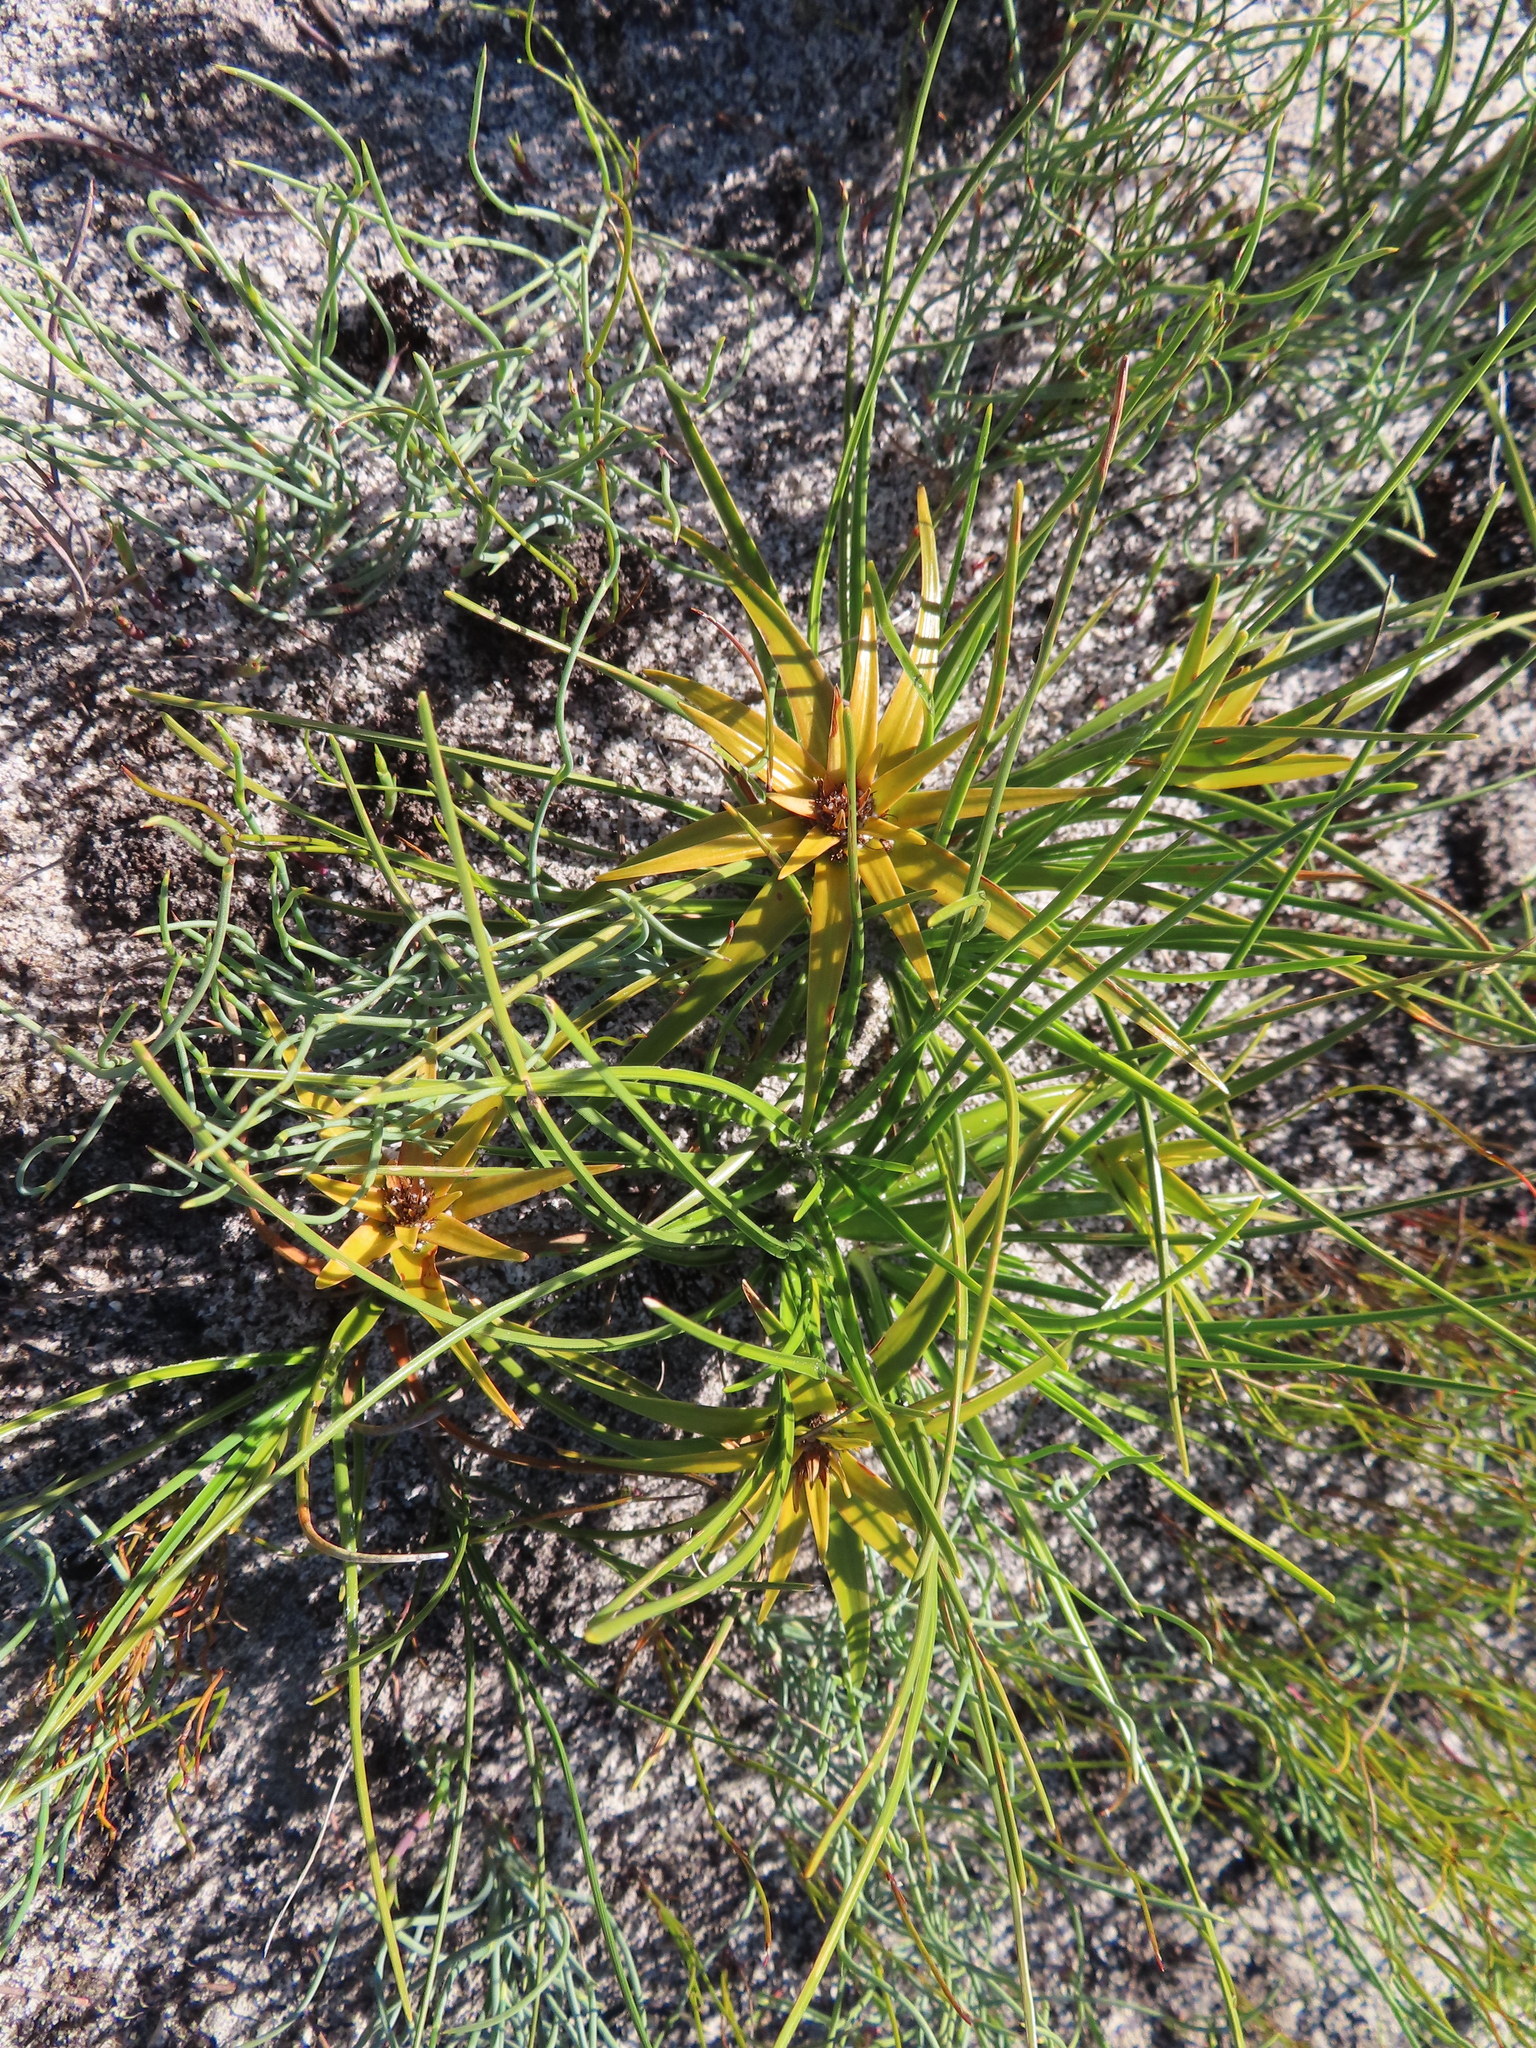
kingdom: Plantae
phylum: Tracheophyta
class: Liliopsida
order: Poales
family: Cyperaceae
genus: Ficinia
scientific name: Ficinia radiata
